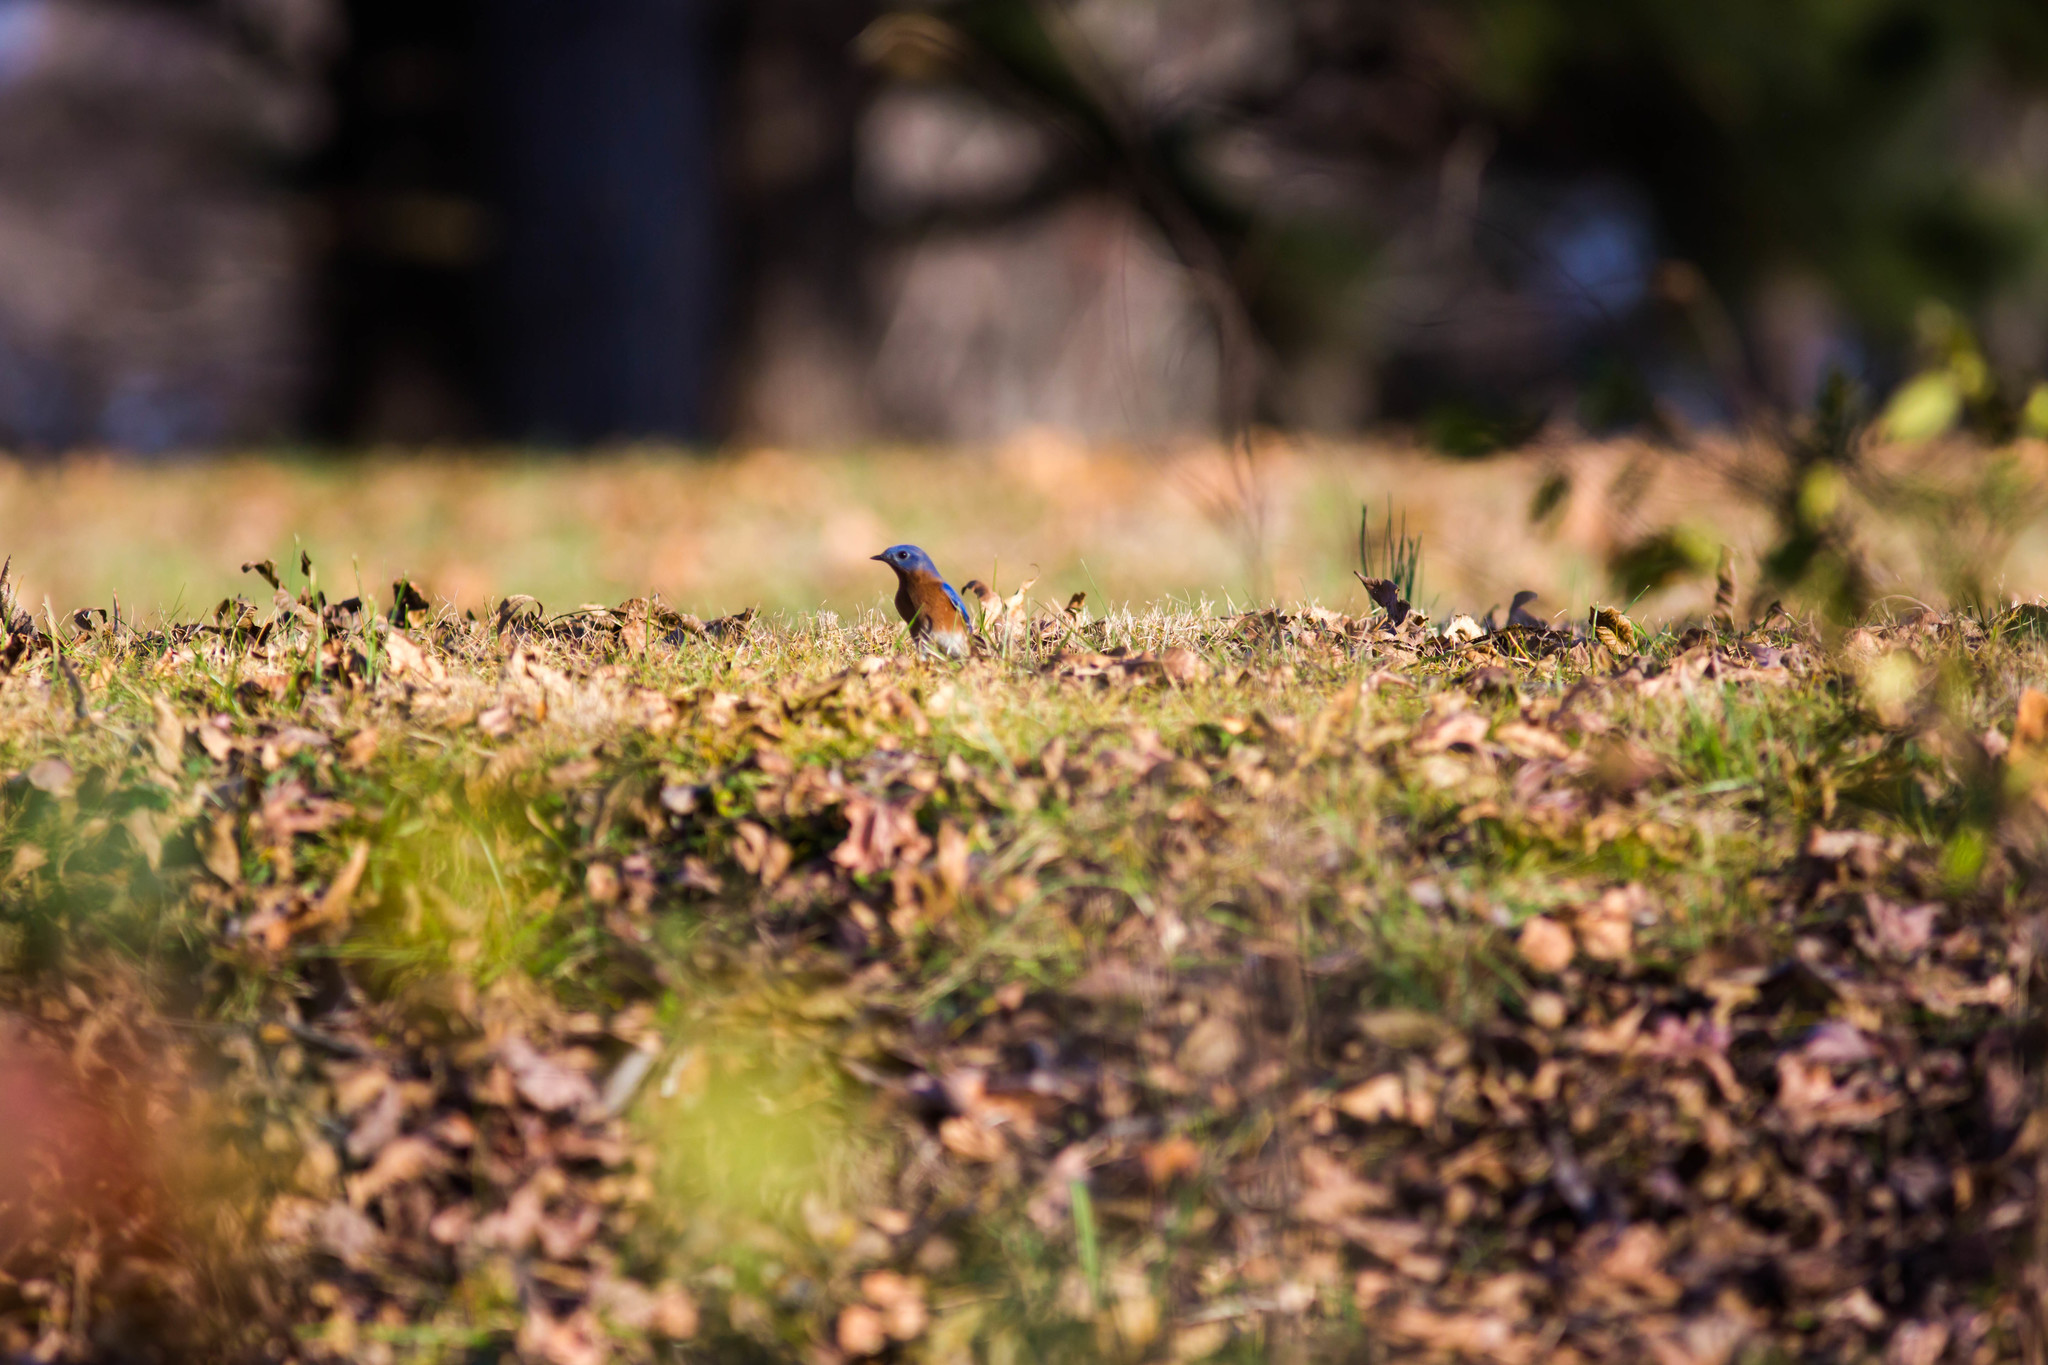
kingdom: Animalia
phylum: Chordata
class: Aves
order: Passeriformes
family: Turdidae
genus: Sialia
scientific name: Sialia sialis
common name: Eastern bluebird
